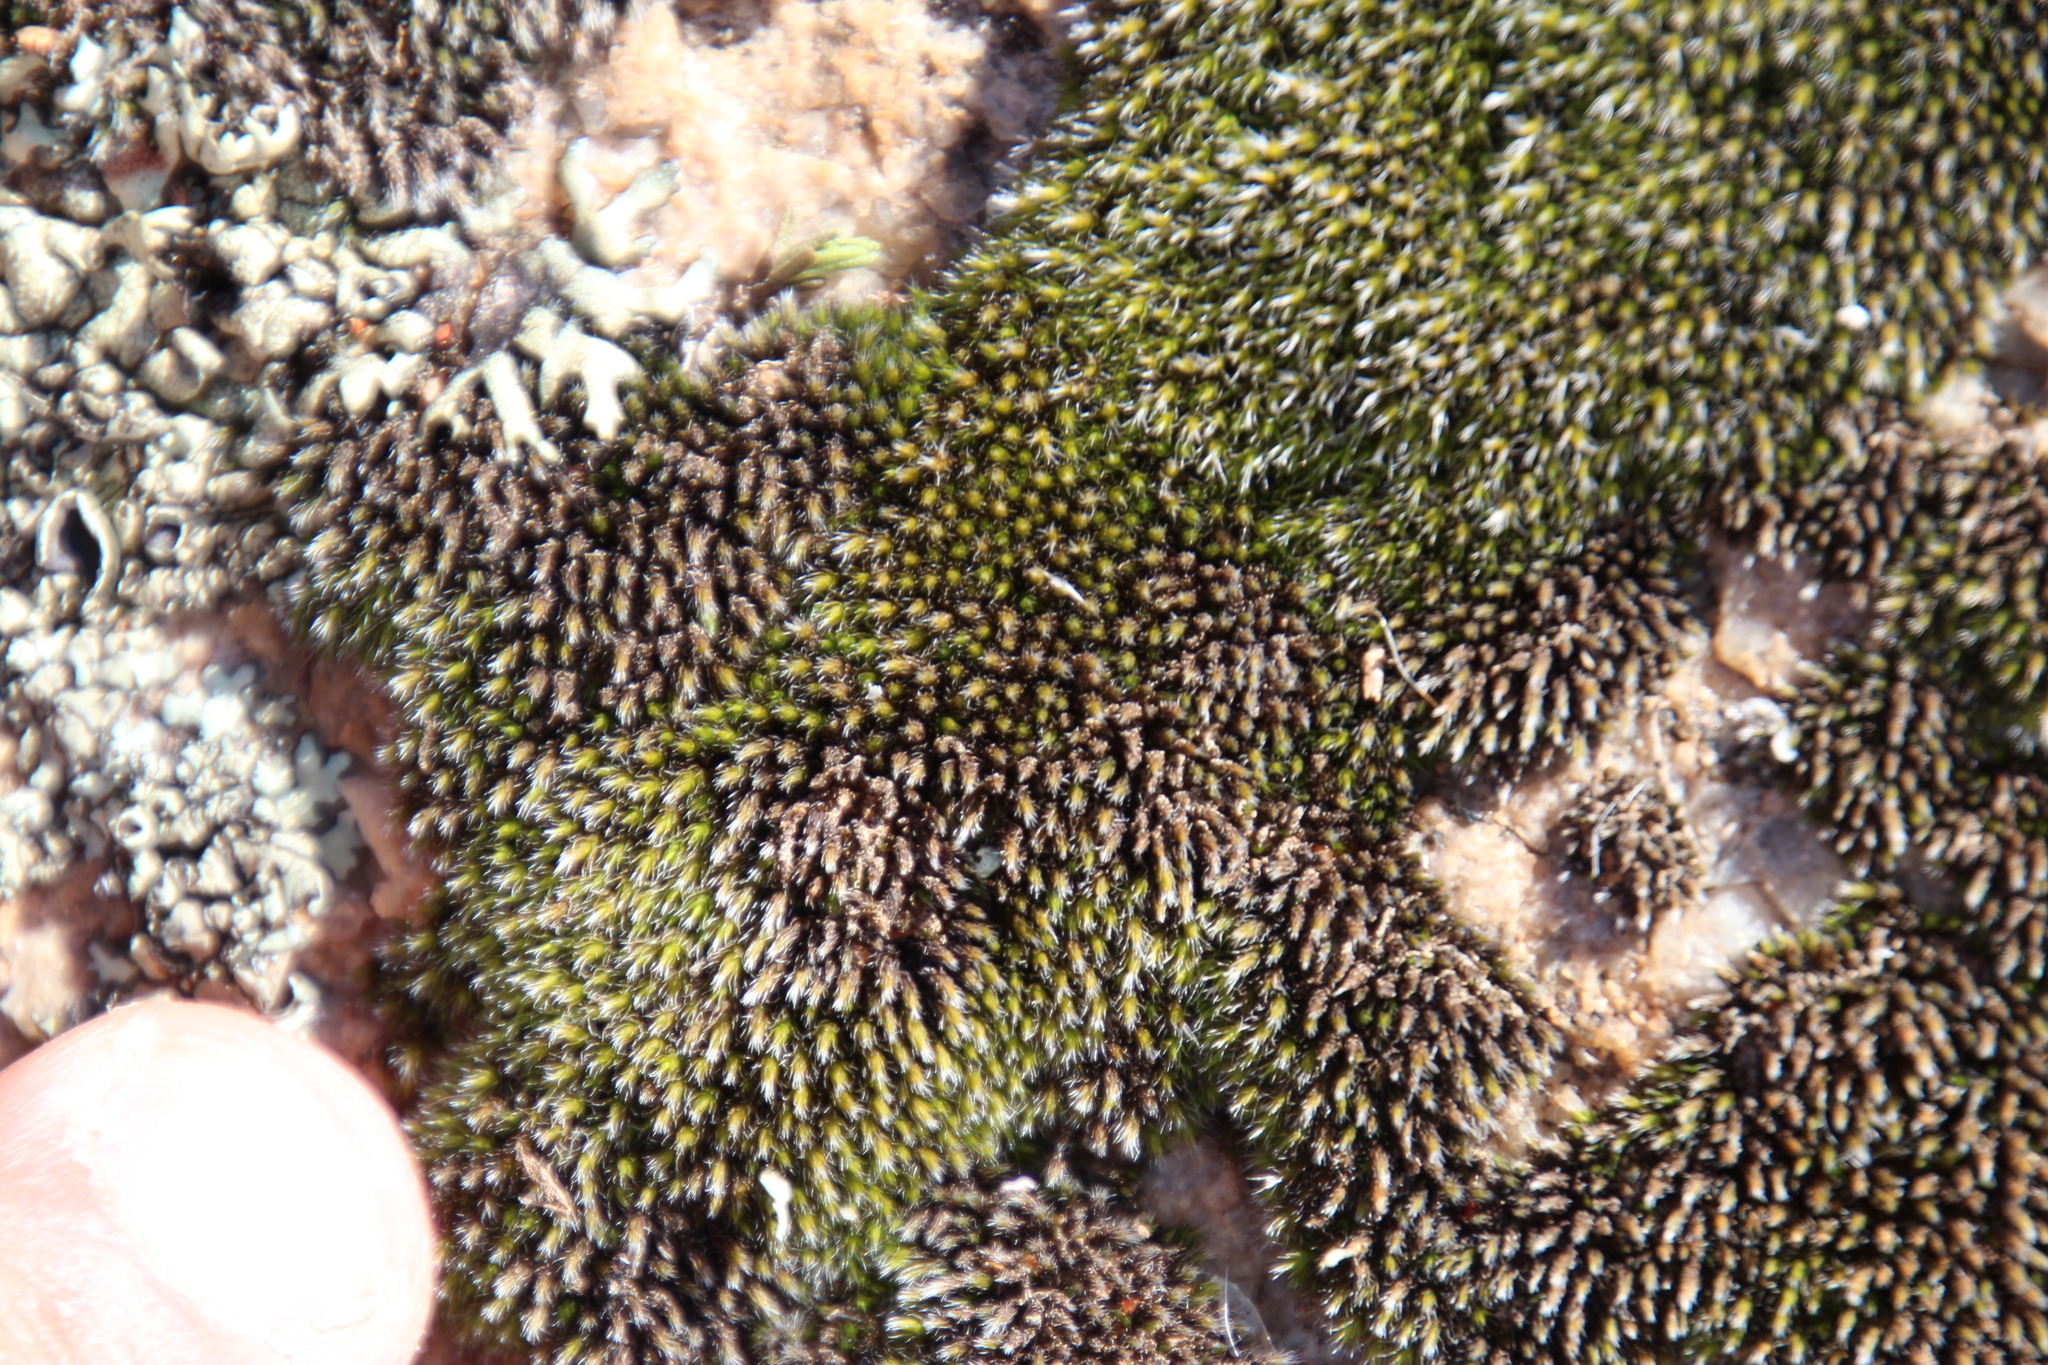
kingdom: Plantae
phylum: Bryophyta
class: Bryopsida
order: Grimmiales
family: Grimmiaceae
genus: Grimmia
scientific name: Grimmia laevigata
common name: Hoary grimmia
